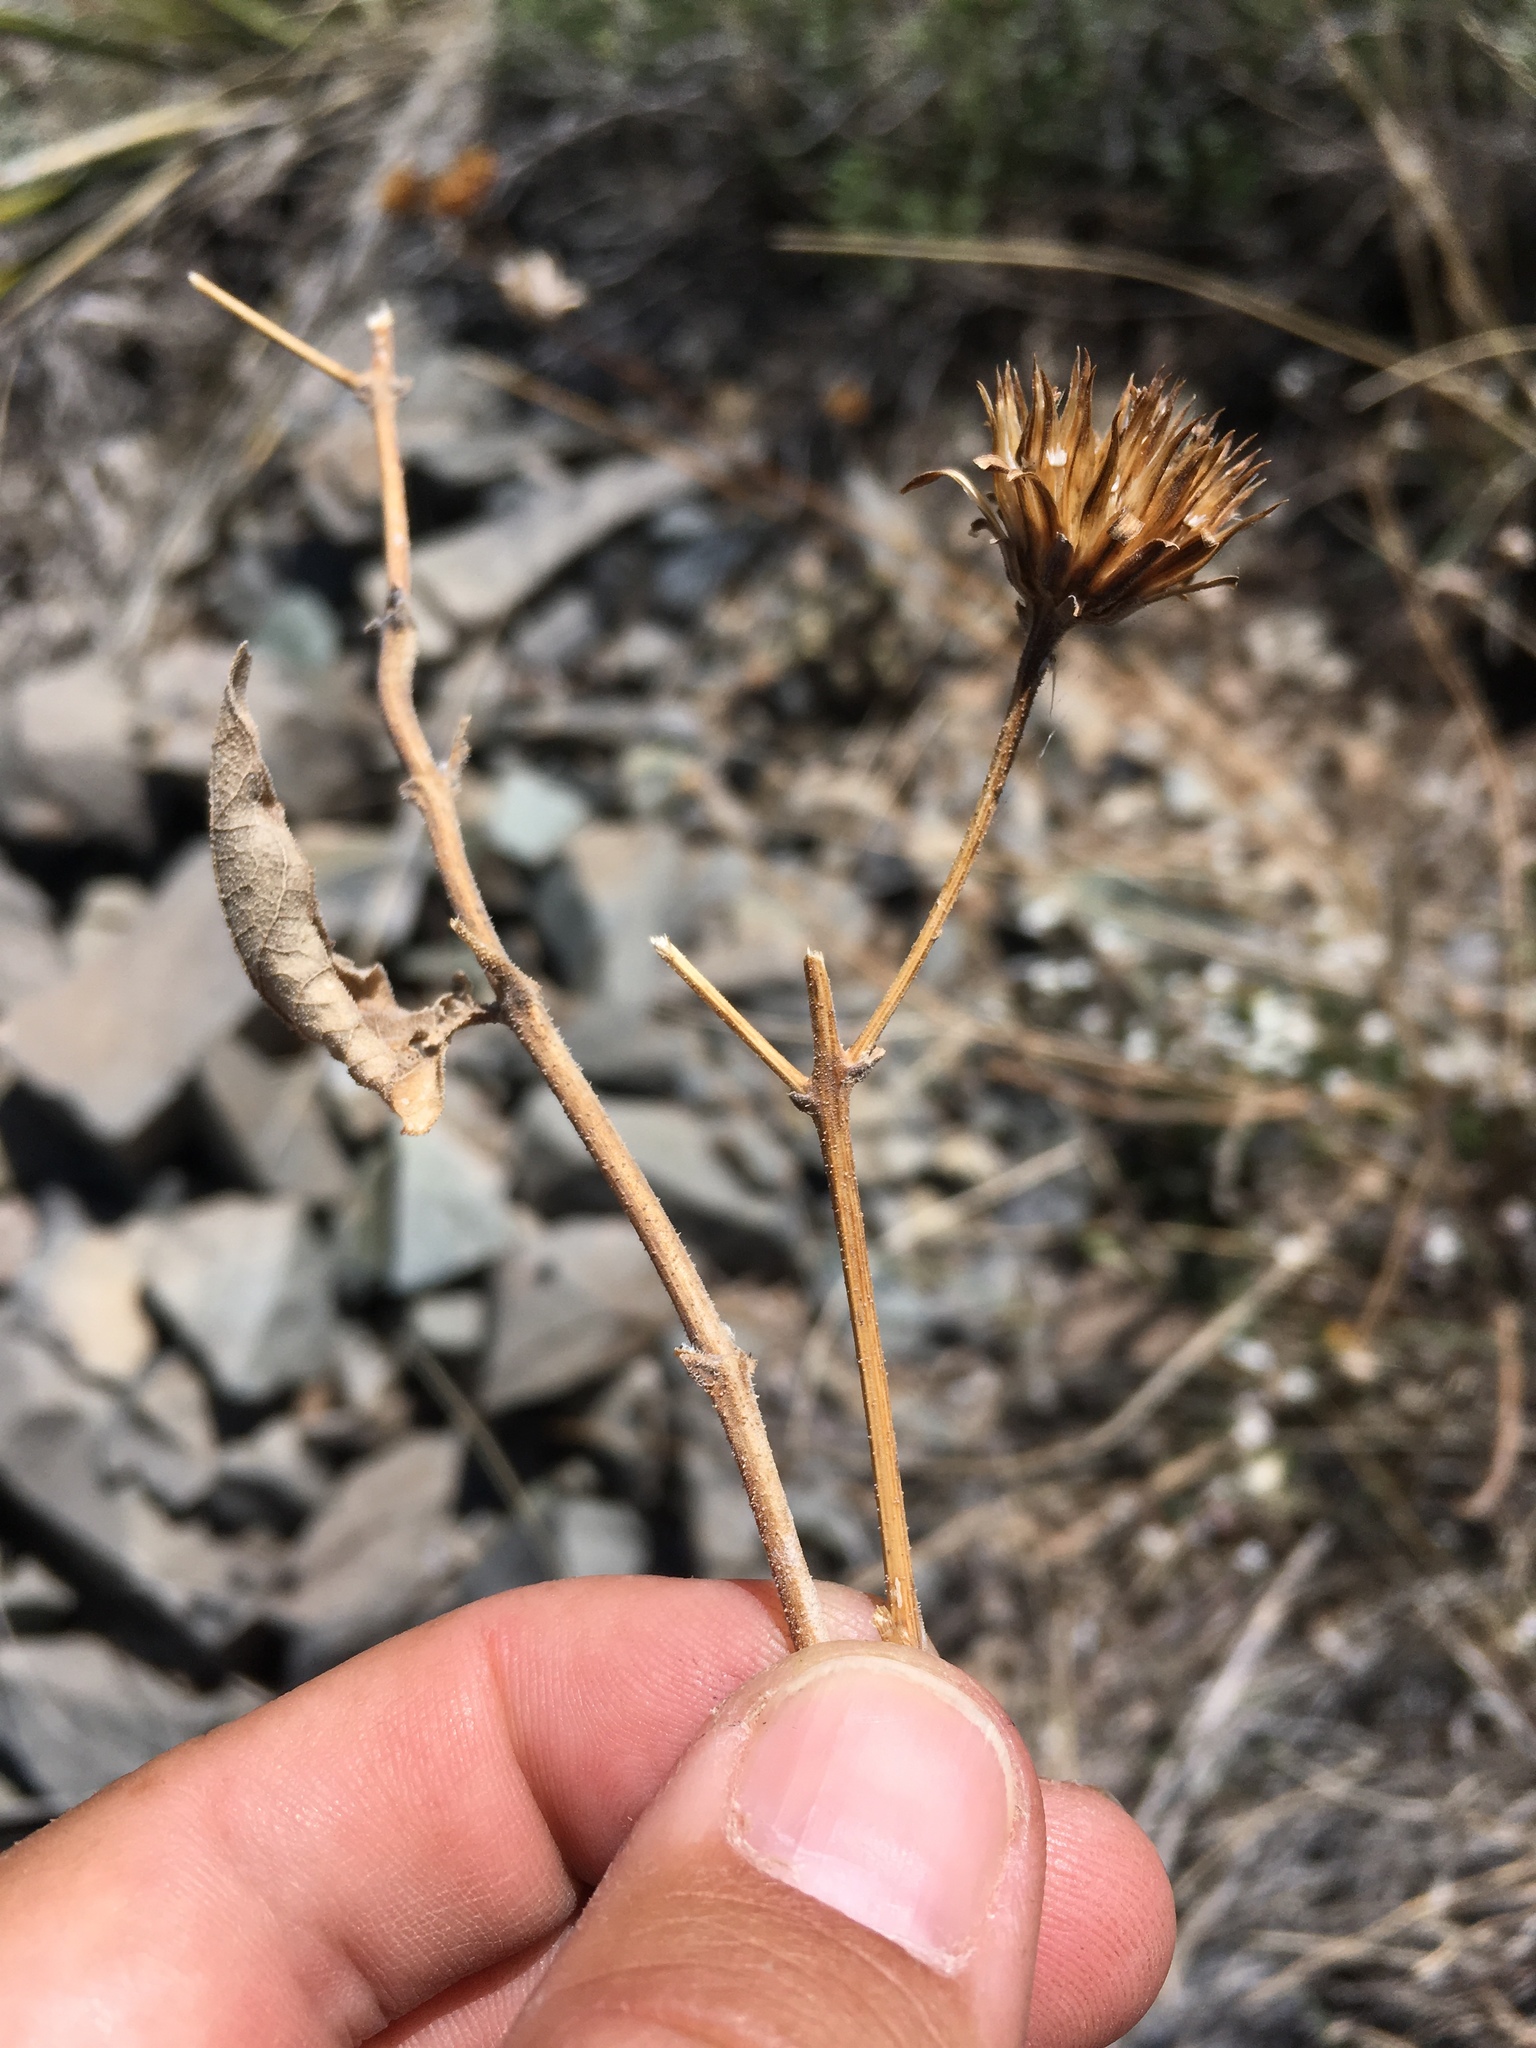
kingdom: Plantae
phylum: Tracheophyta
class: Magnoliopsida
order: Asterales
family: Asteraceae
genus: Viguiera
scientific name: Viguiera dentata
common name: Toothleaf
